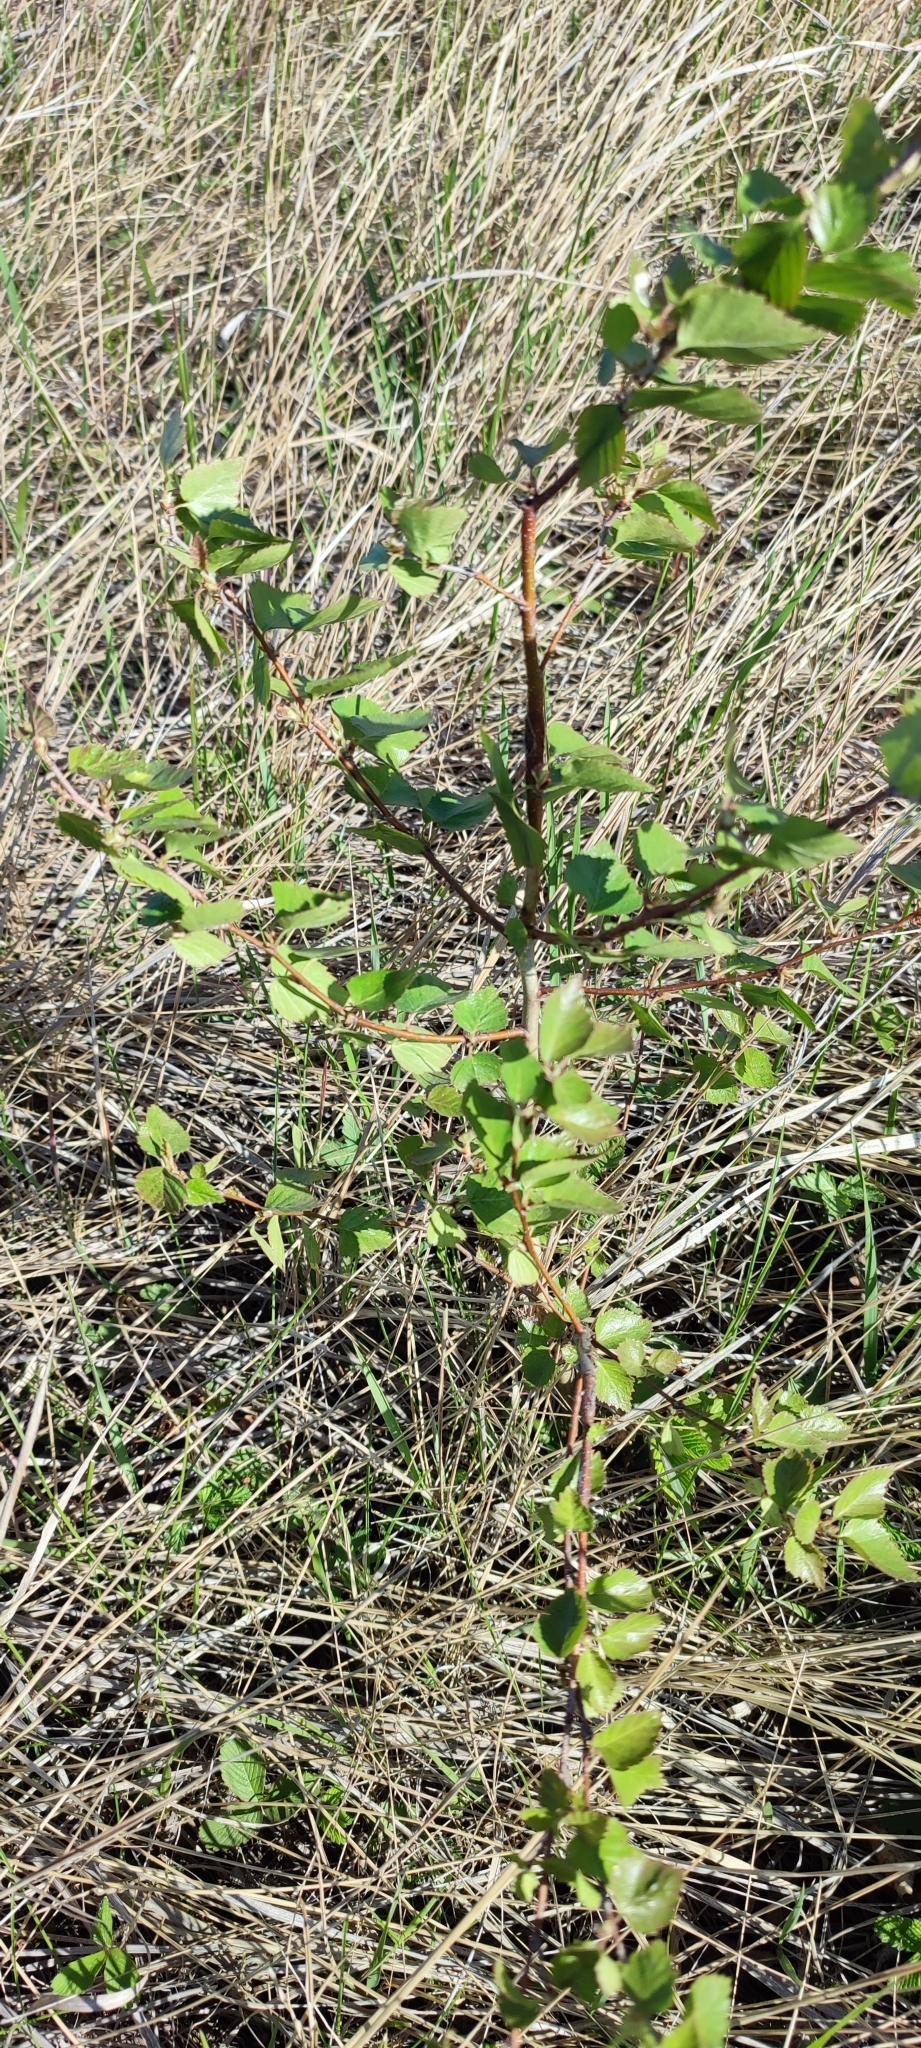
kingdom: Plantae
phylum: Tracheophyta
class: Magnoliopsida
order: Fagales
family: Betulaceae
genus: Betula
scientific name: Betula pendula
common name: Silver birch
